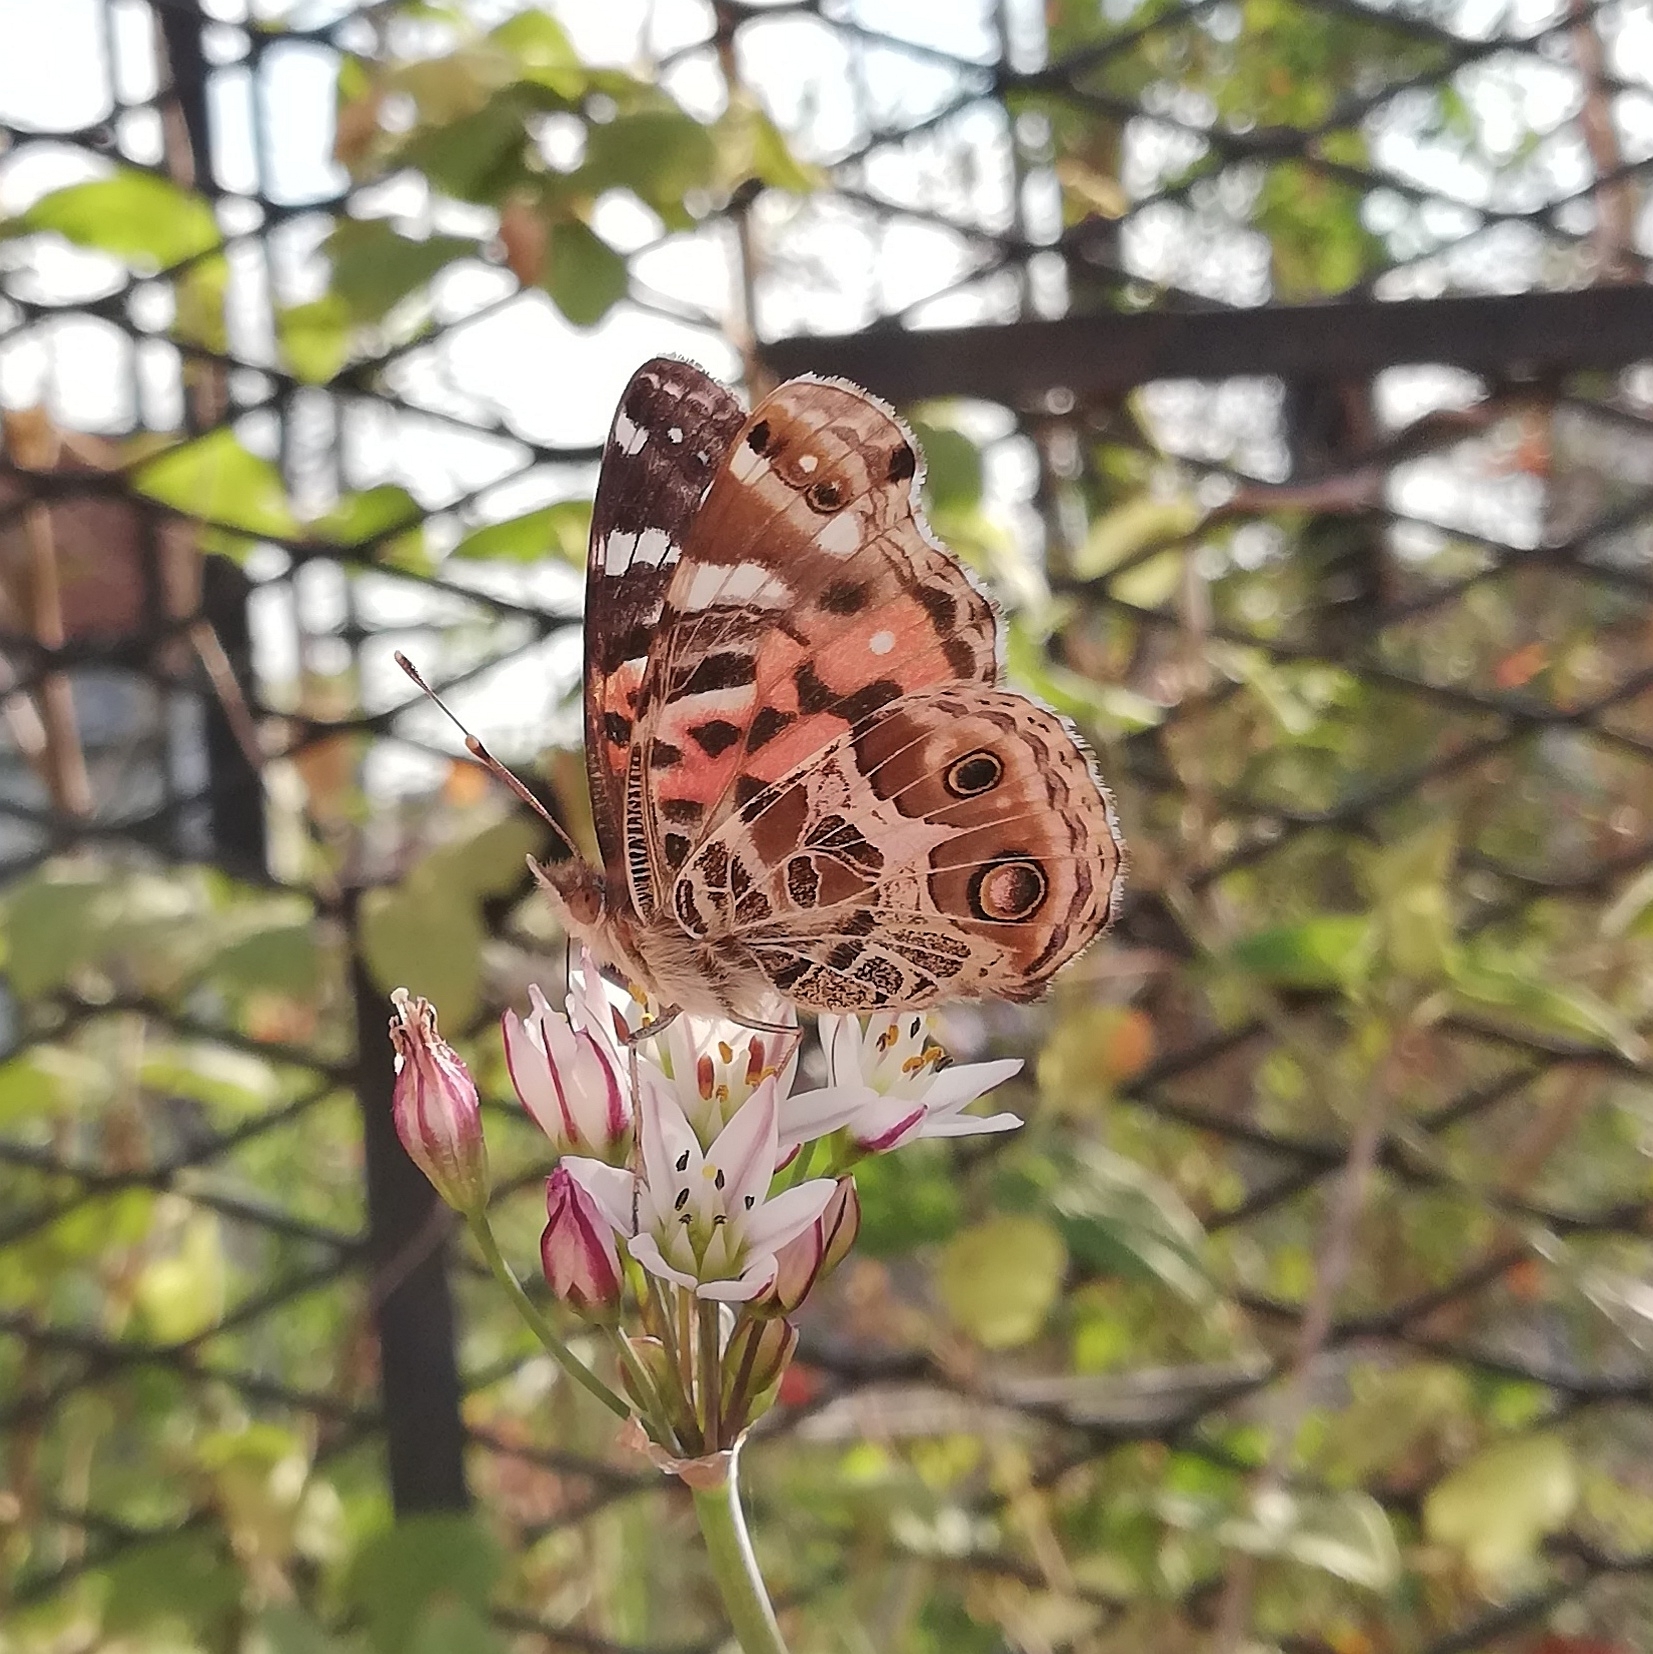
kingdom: Animalia
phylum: Arthropoda
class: Insecta
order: Lepidoptera
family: Nymphalidae
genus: Vanessa
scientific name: Vanessa braziliensis
